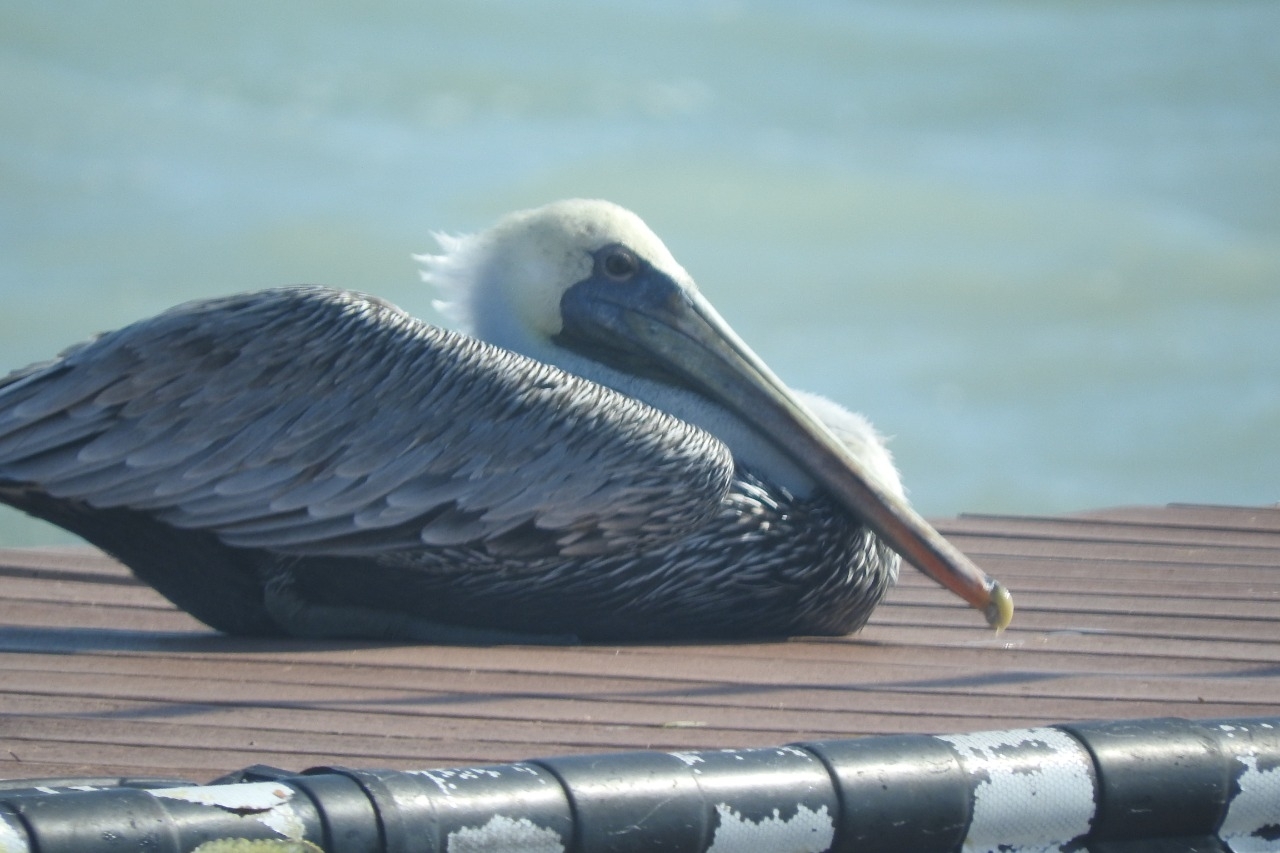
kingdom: Animalia
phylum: Chordata
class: Aves
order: Pelecaniformes
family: Pelecanidae
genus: Pelecanus
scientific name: Pelecanus occidentalis
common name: Brown pelican
